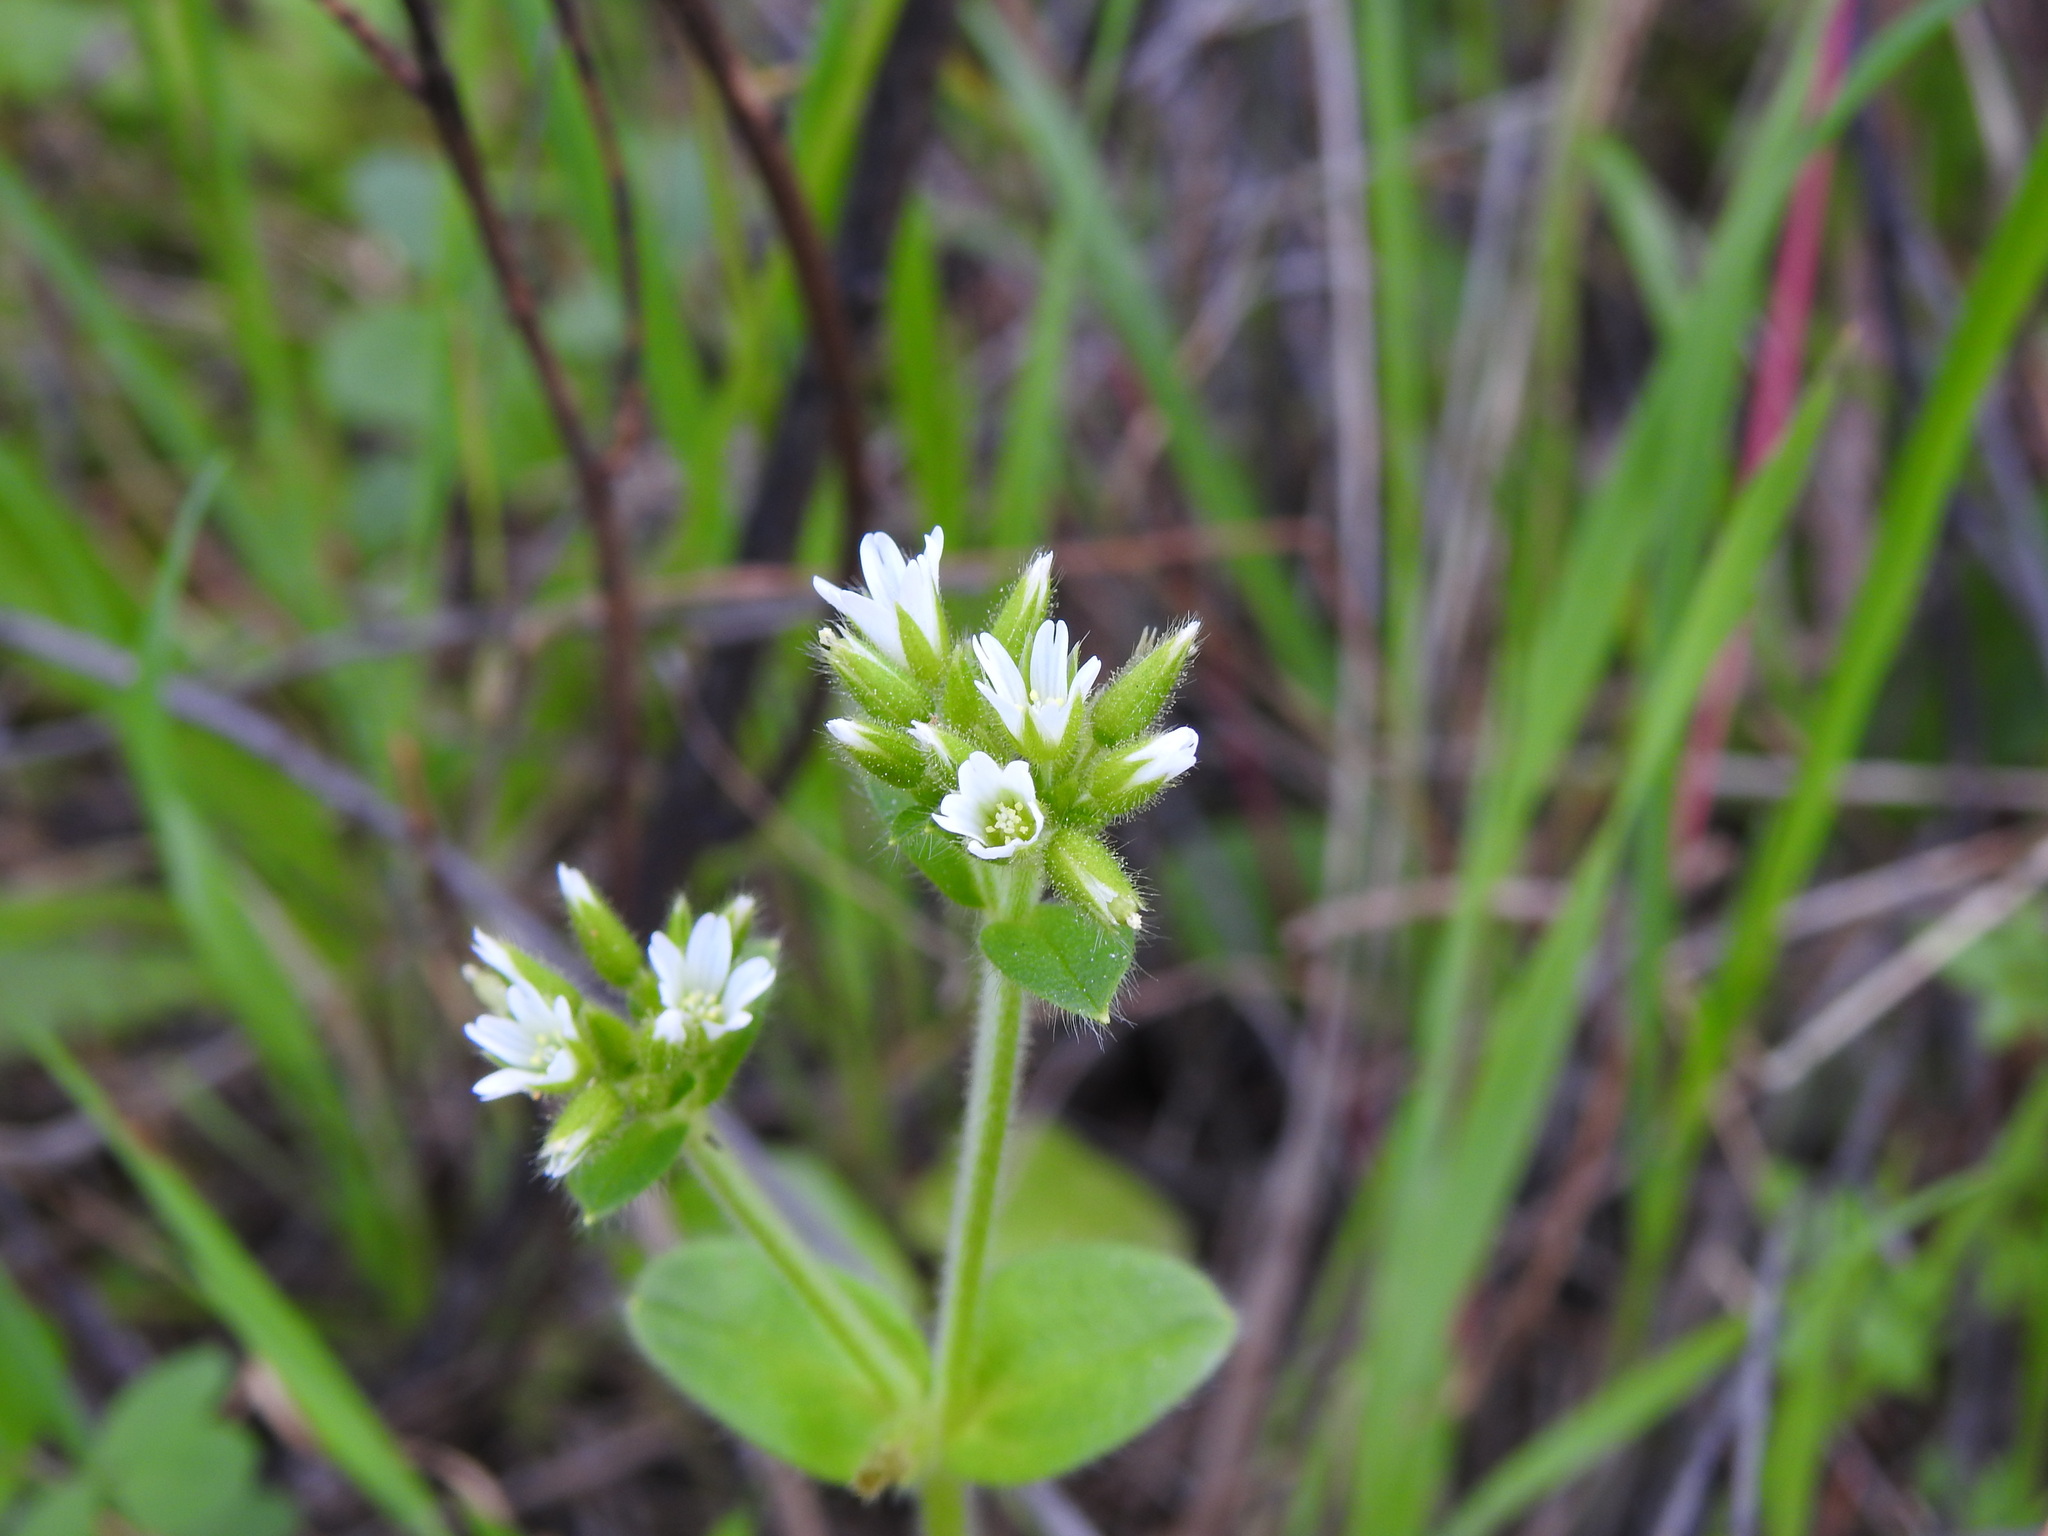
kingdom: Plantae
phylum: Tracheophyta
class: Magnoliopsida
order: Caryophyllales
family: Caryophyllaceae
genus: Cerastium
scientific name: Cerastium glomeratum
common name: Sticky chickweed
